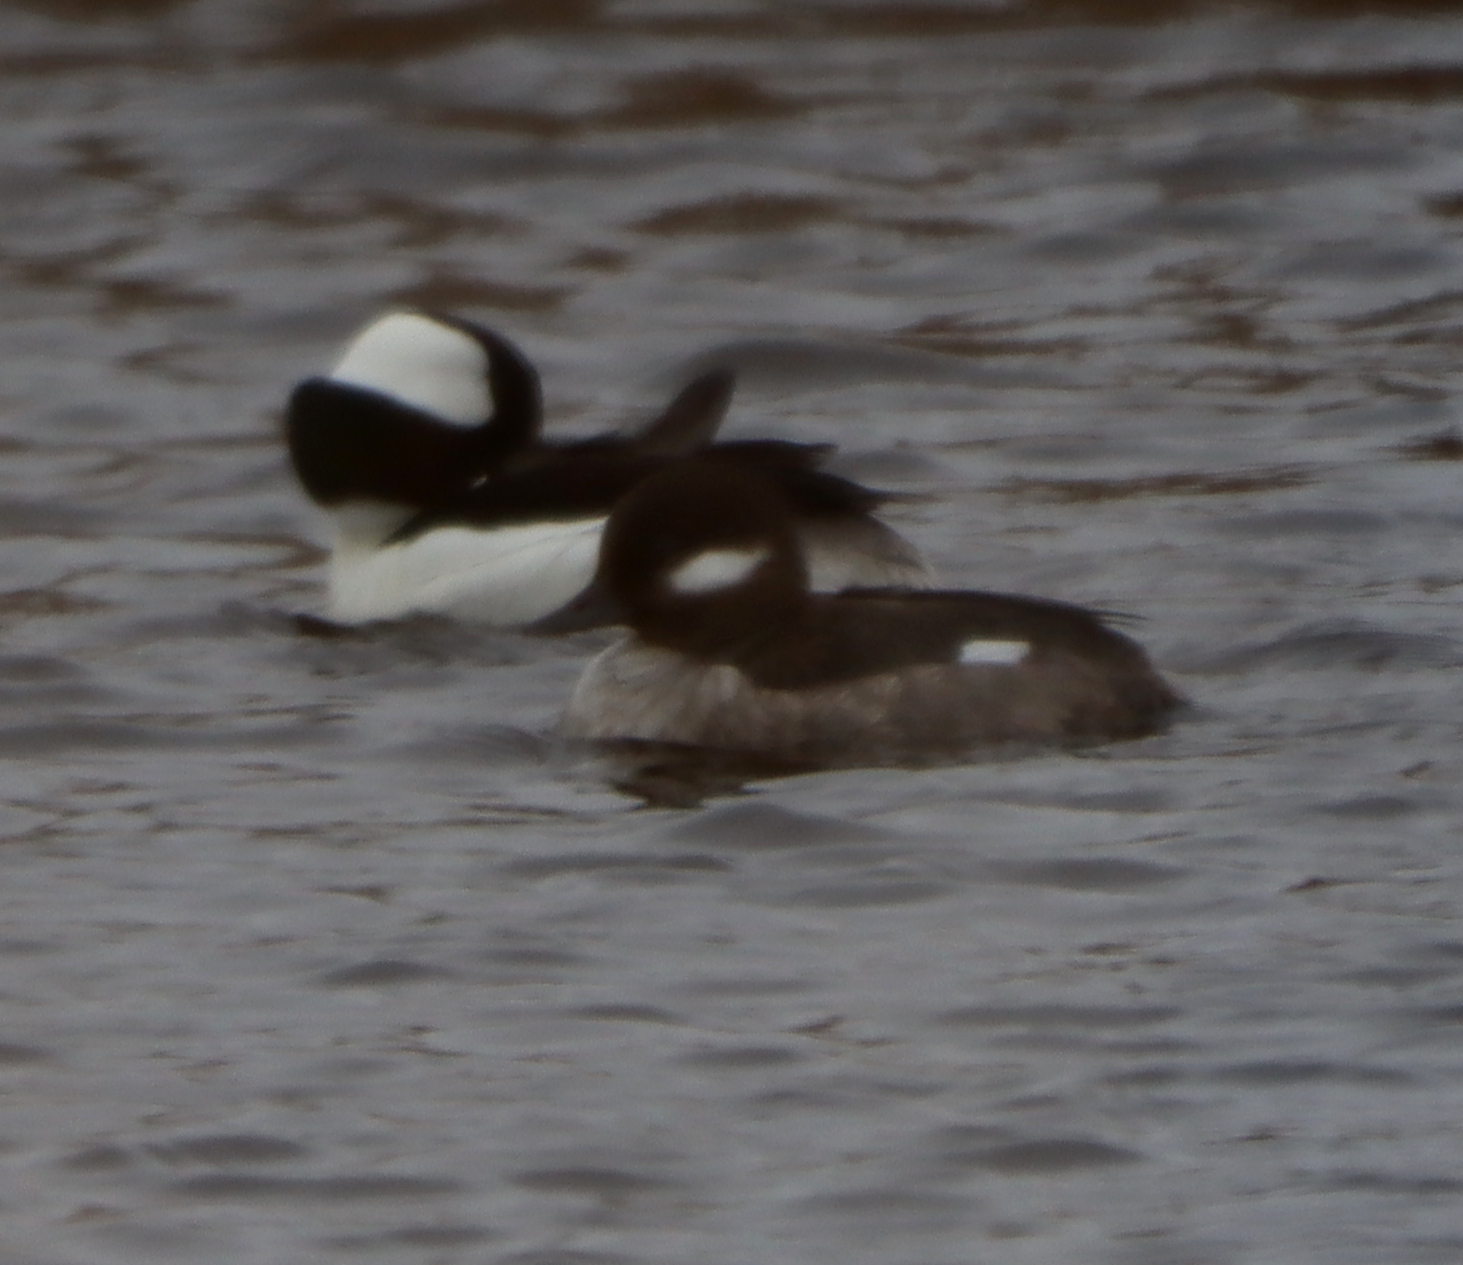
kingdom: Animalia
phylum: Chordata
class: Aves
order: Anseriformes
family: Anatidae
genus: Bucephala
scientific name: Bucephala albeola
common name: Bufflehead
